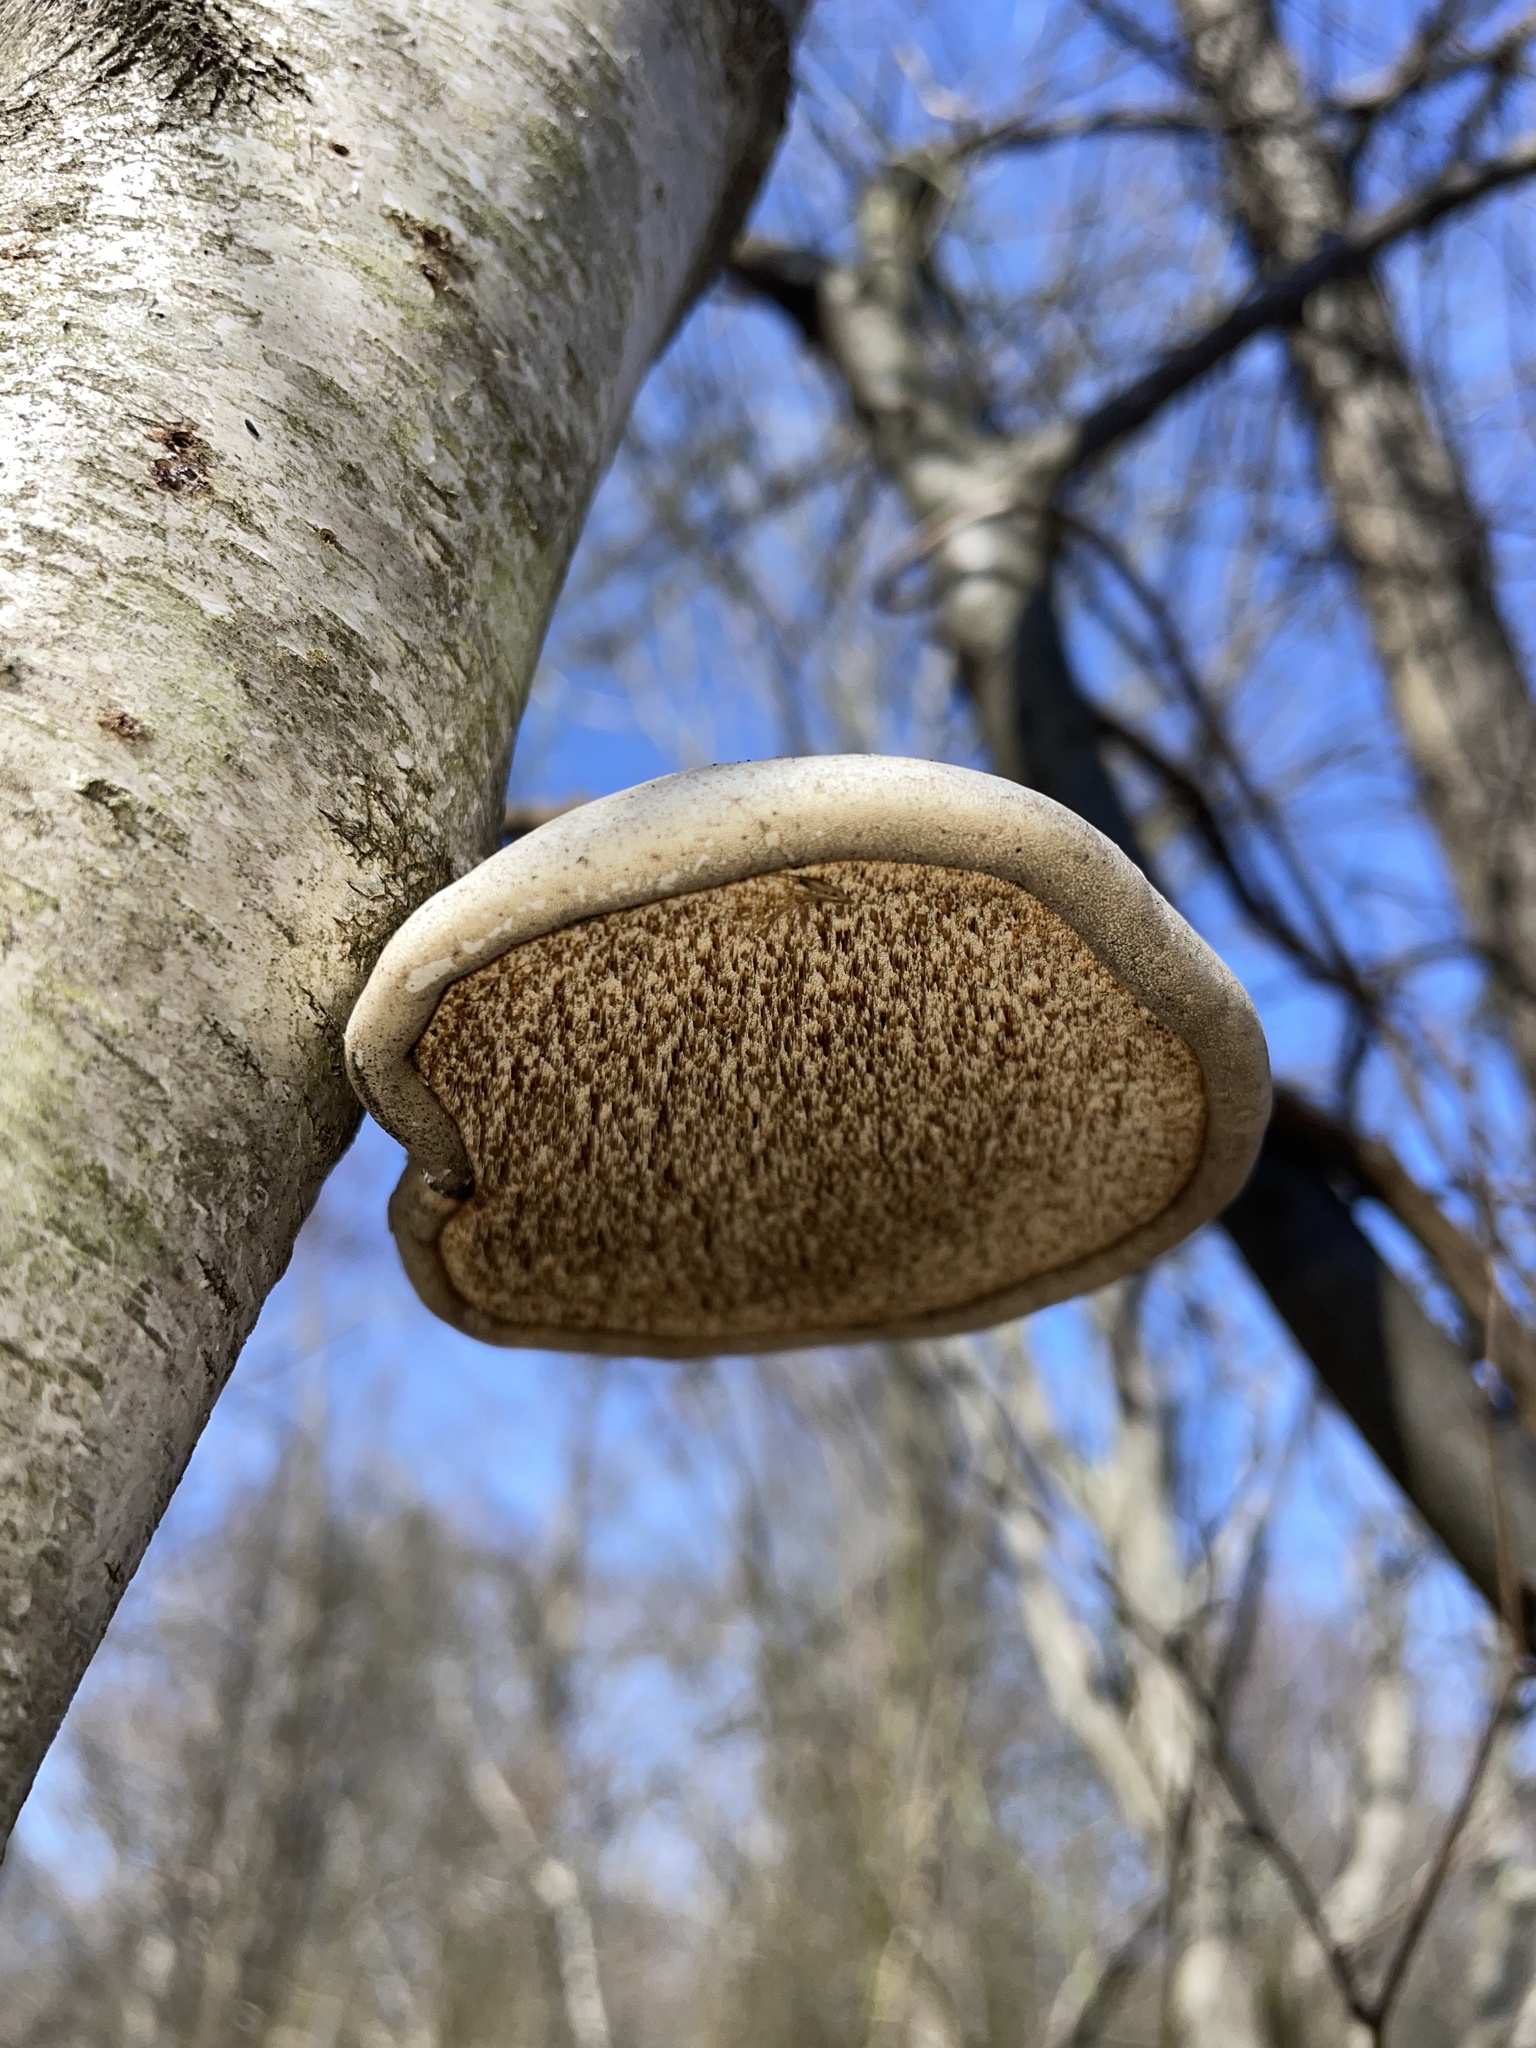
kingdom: Fungi
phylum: Basidiomycota
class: Agaricomycetes
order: Polyporales
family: Fomitopsidaceae
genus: Fomitopsis
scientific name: Fomitopsis betulina
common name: Birch polypore
